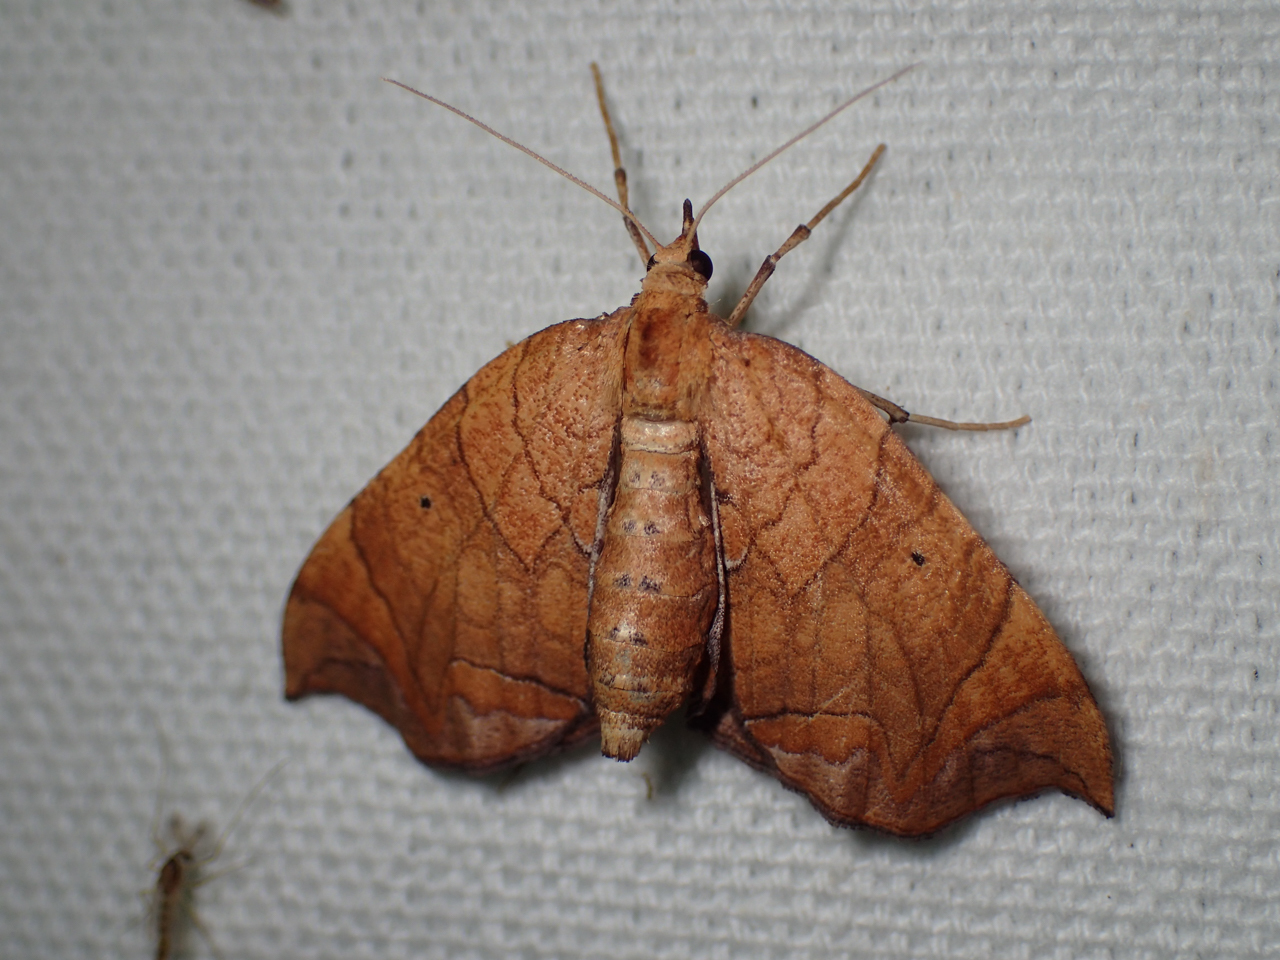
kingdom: Animalia
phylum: Arthropoda
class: Insecta
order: Lepidoptera
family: Geometridae
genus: Eulithis
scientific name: Eulithis
